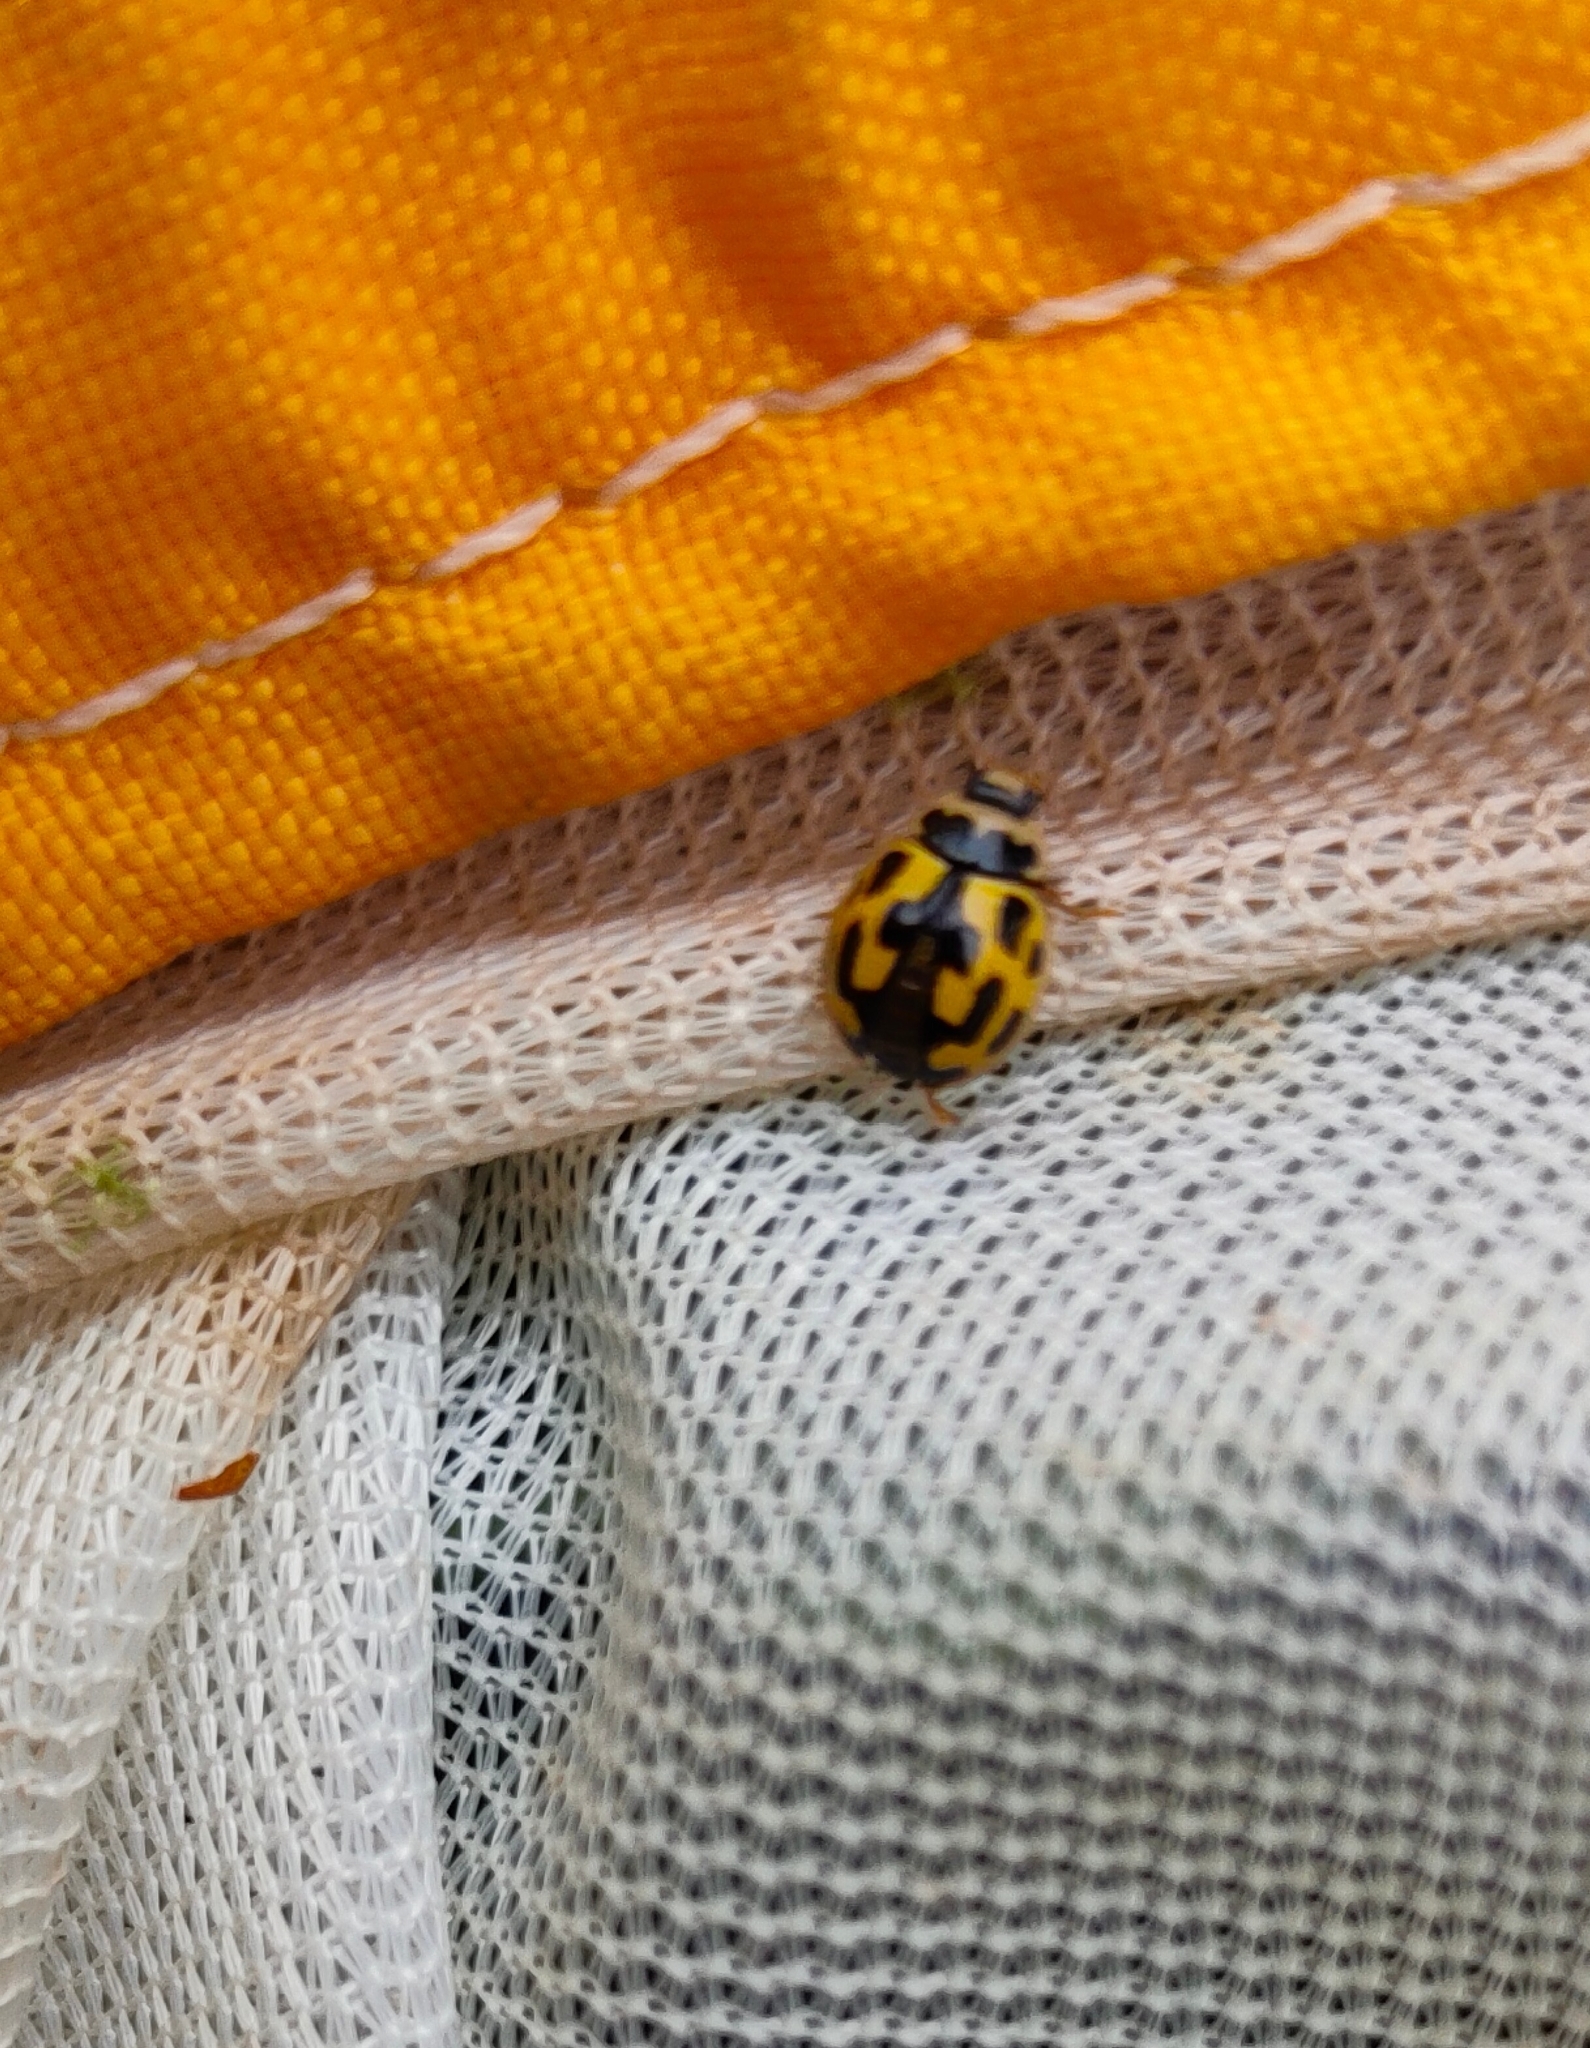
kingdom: Animalia
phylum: Arthropoda
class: Insecta
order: Coleoptera
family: Coccinellidae
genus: Propylaea
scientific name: Propylaea quatuordecimpunctata
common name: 14-spotted ladybird beetle
